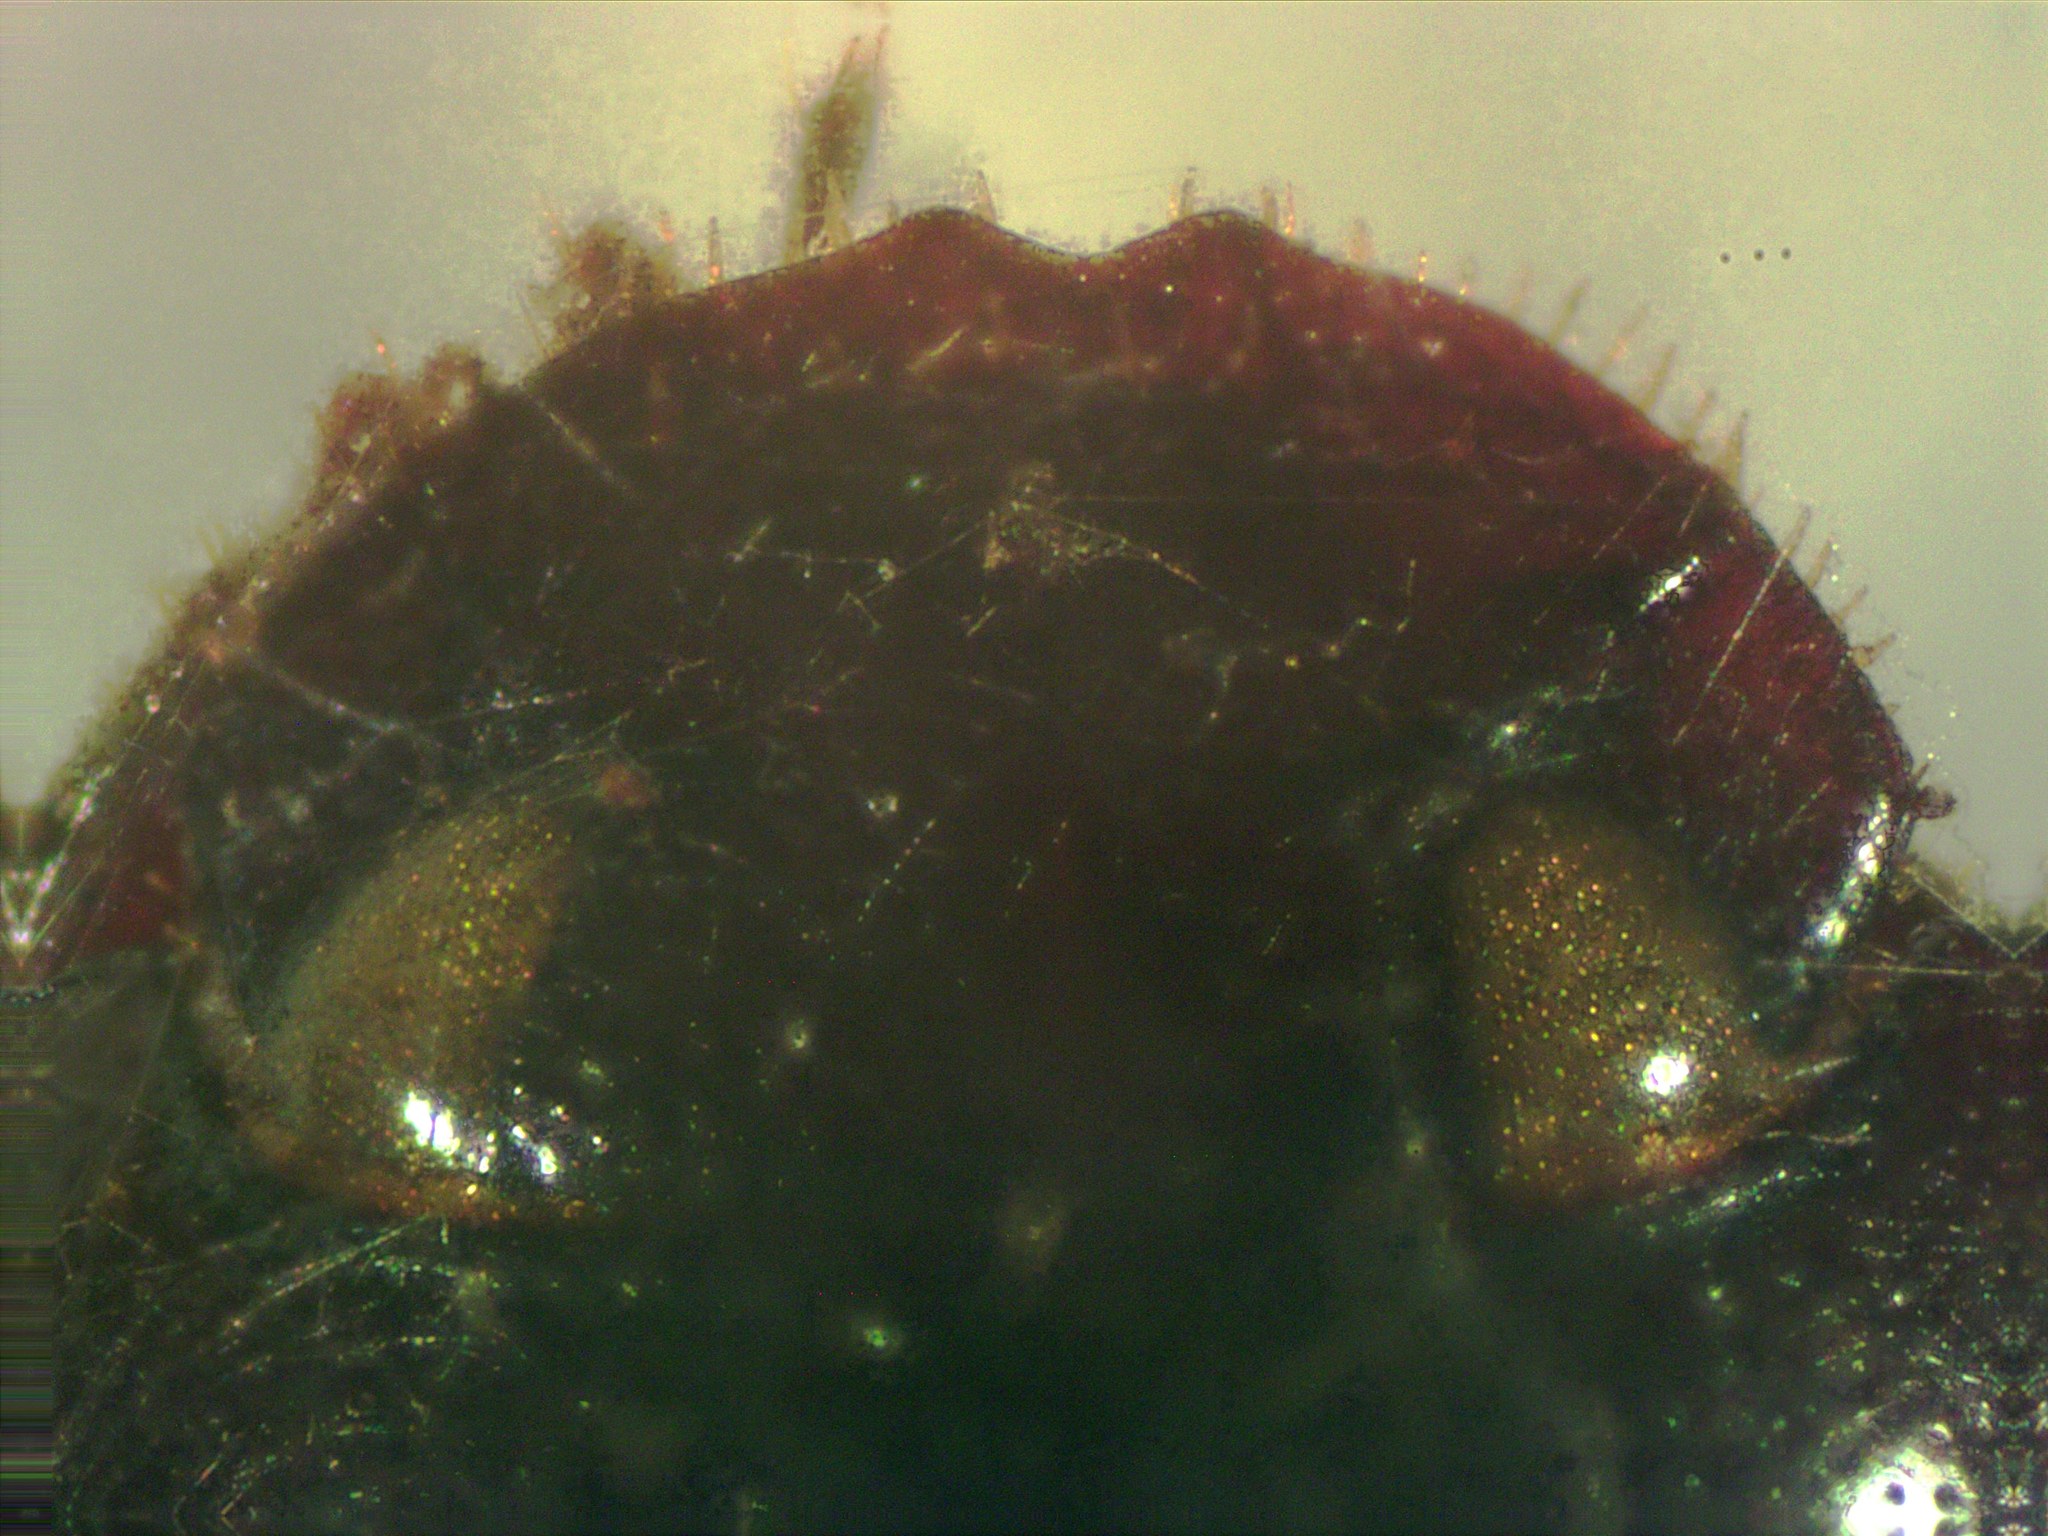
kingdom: Animalia
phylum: Arthropoda
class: Insecta
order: Coleoptera
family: Scarabaeidae
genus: Agamopus
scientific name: Agamopus lampros
